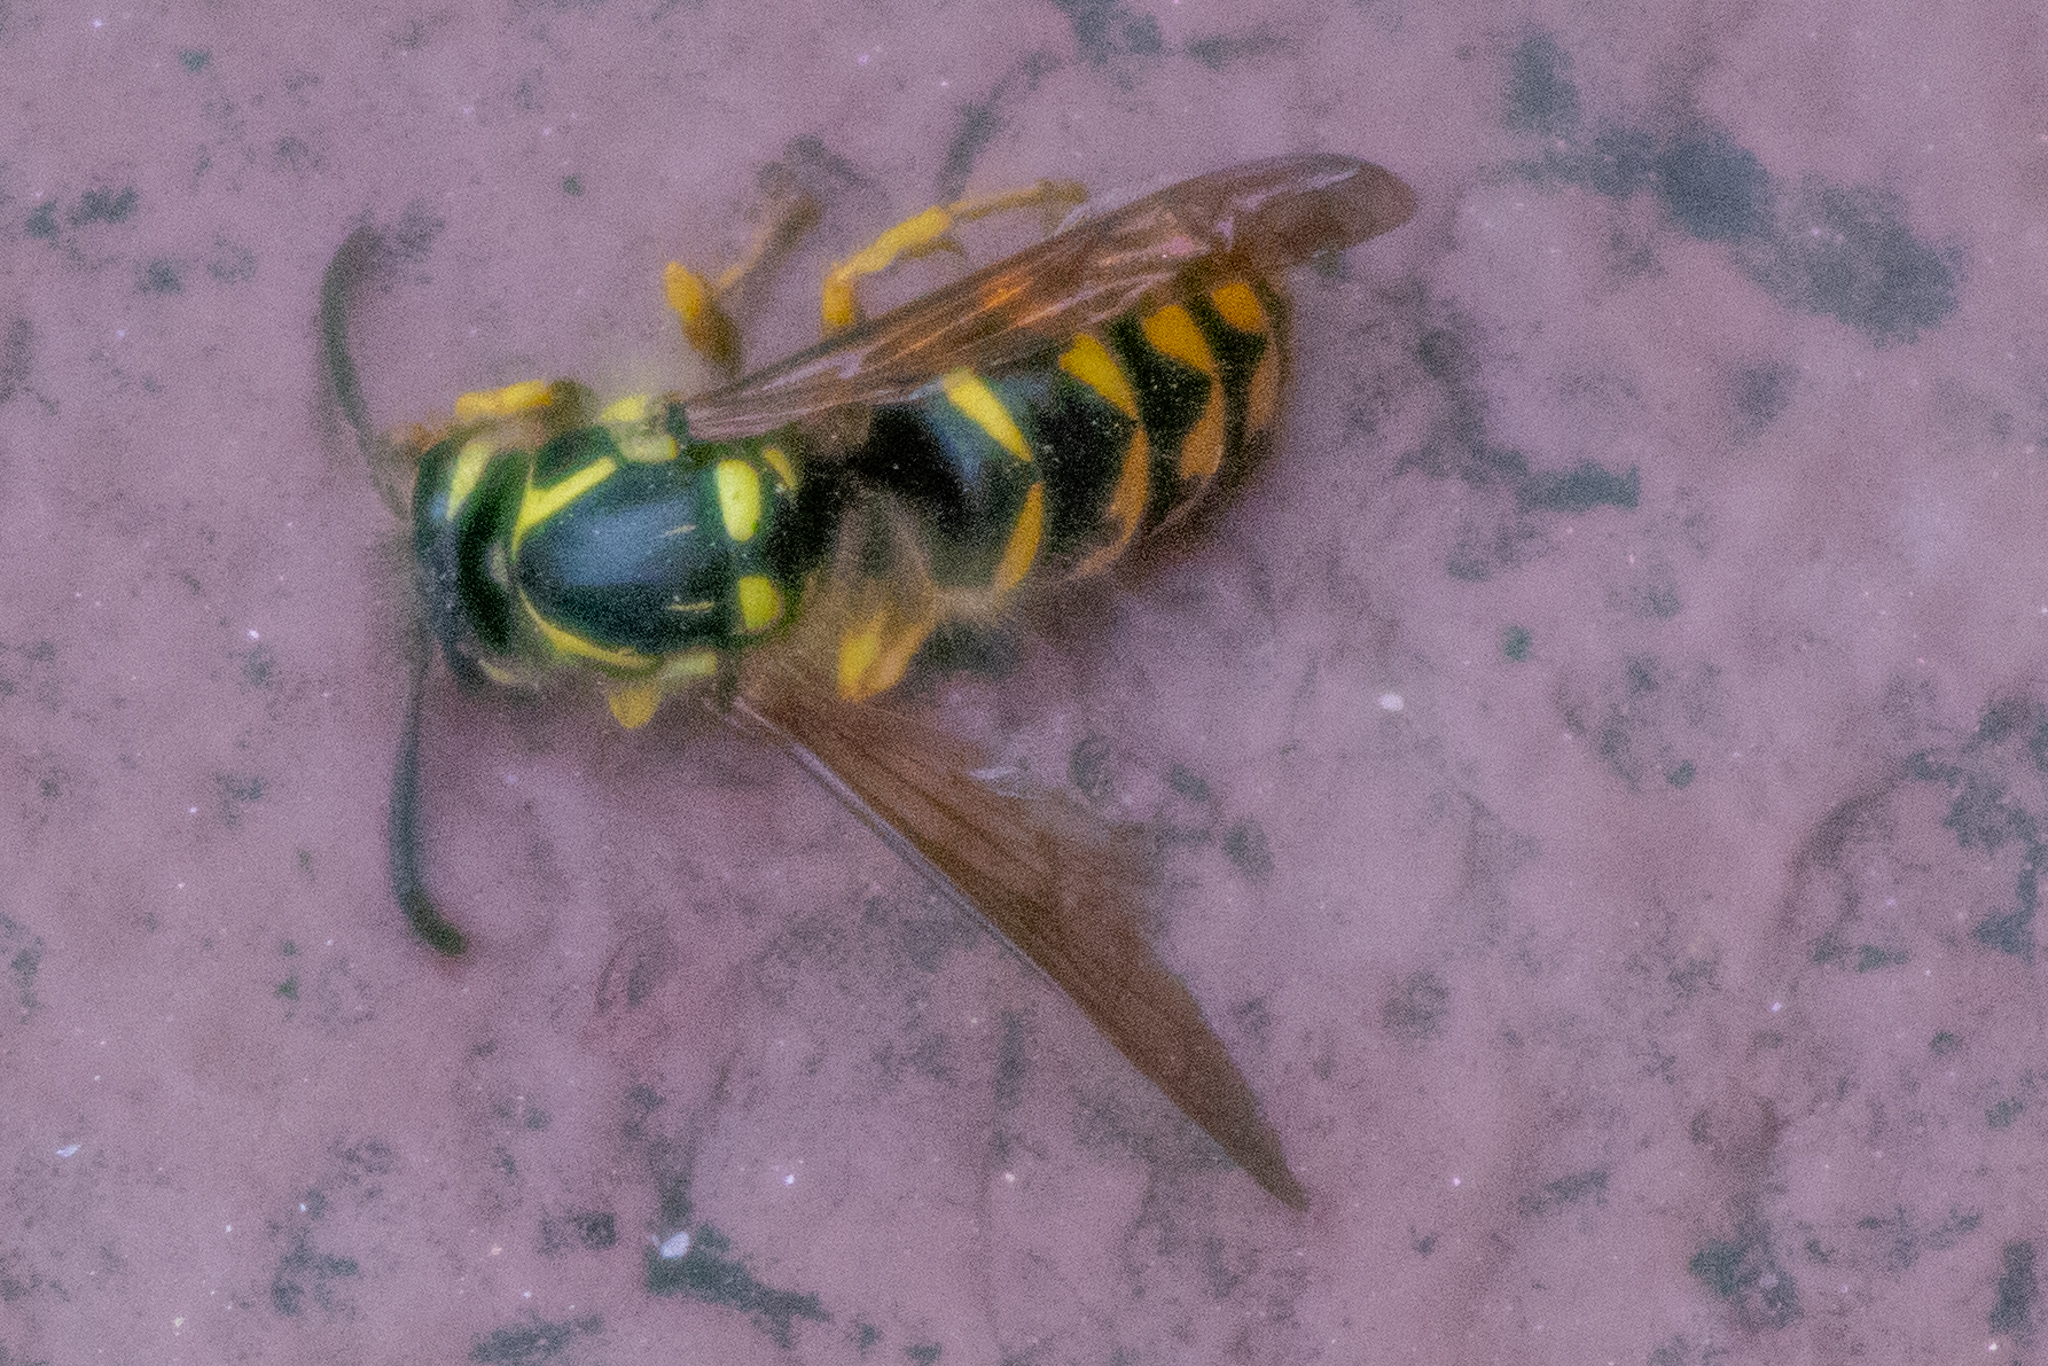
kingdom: Animalia
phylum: Arthropoda
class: Insecta
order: Hymenoptera
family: Vespidae
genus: Dolichovespula
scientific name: Dolichovespula arenaria
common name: Aerial yellowjacket
